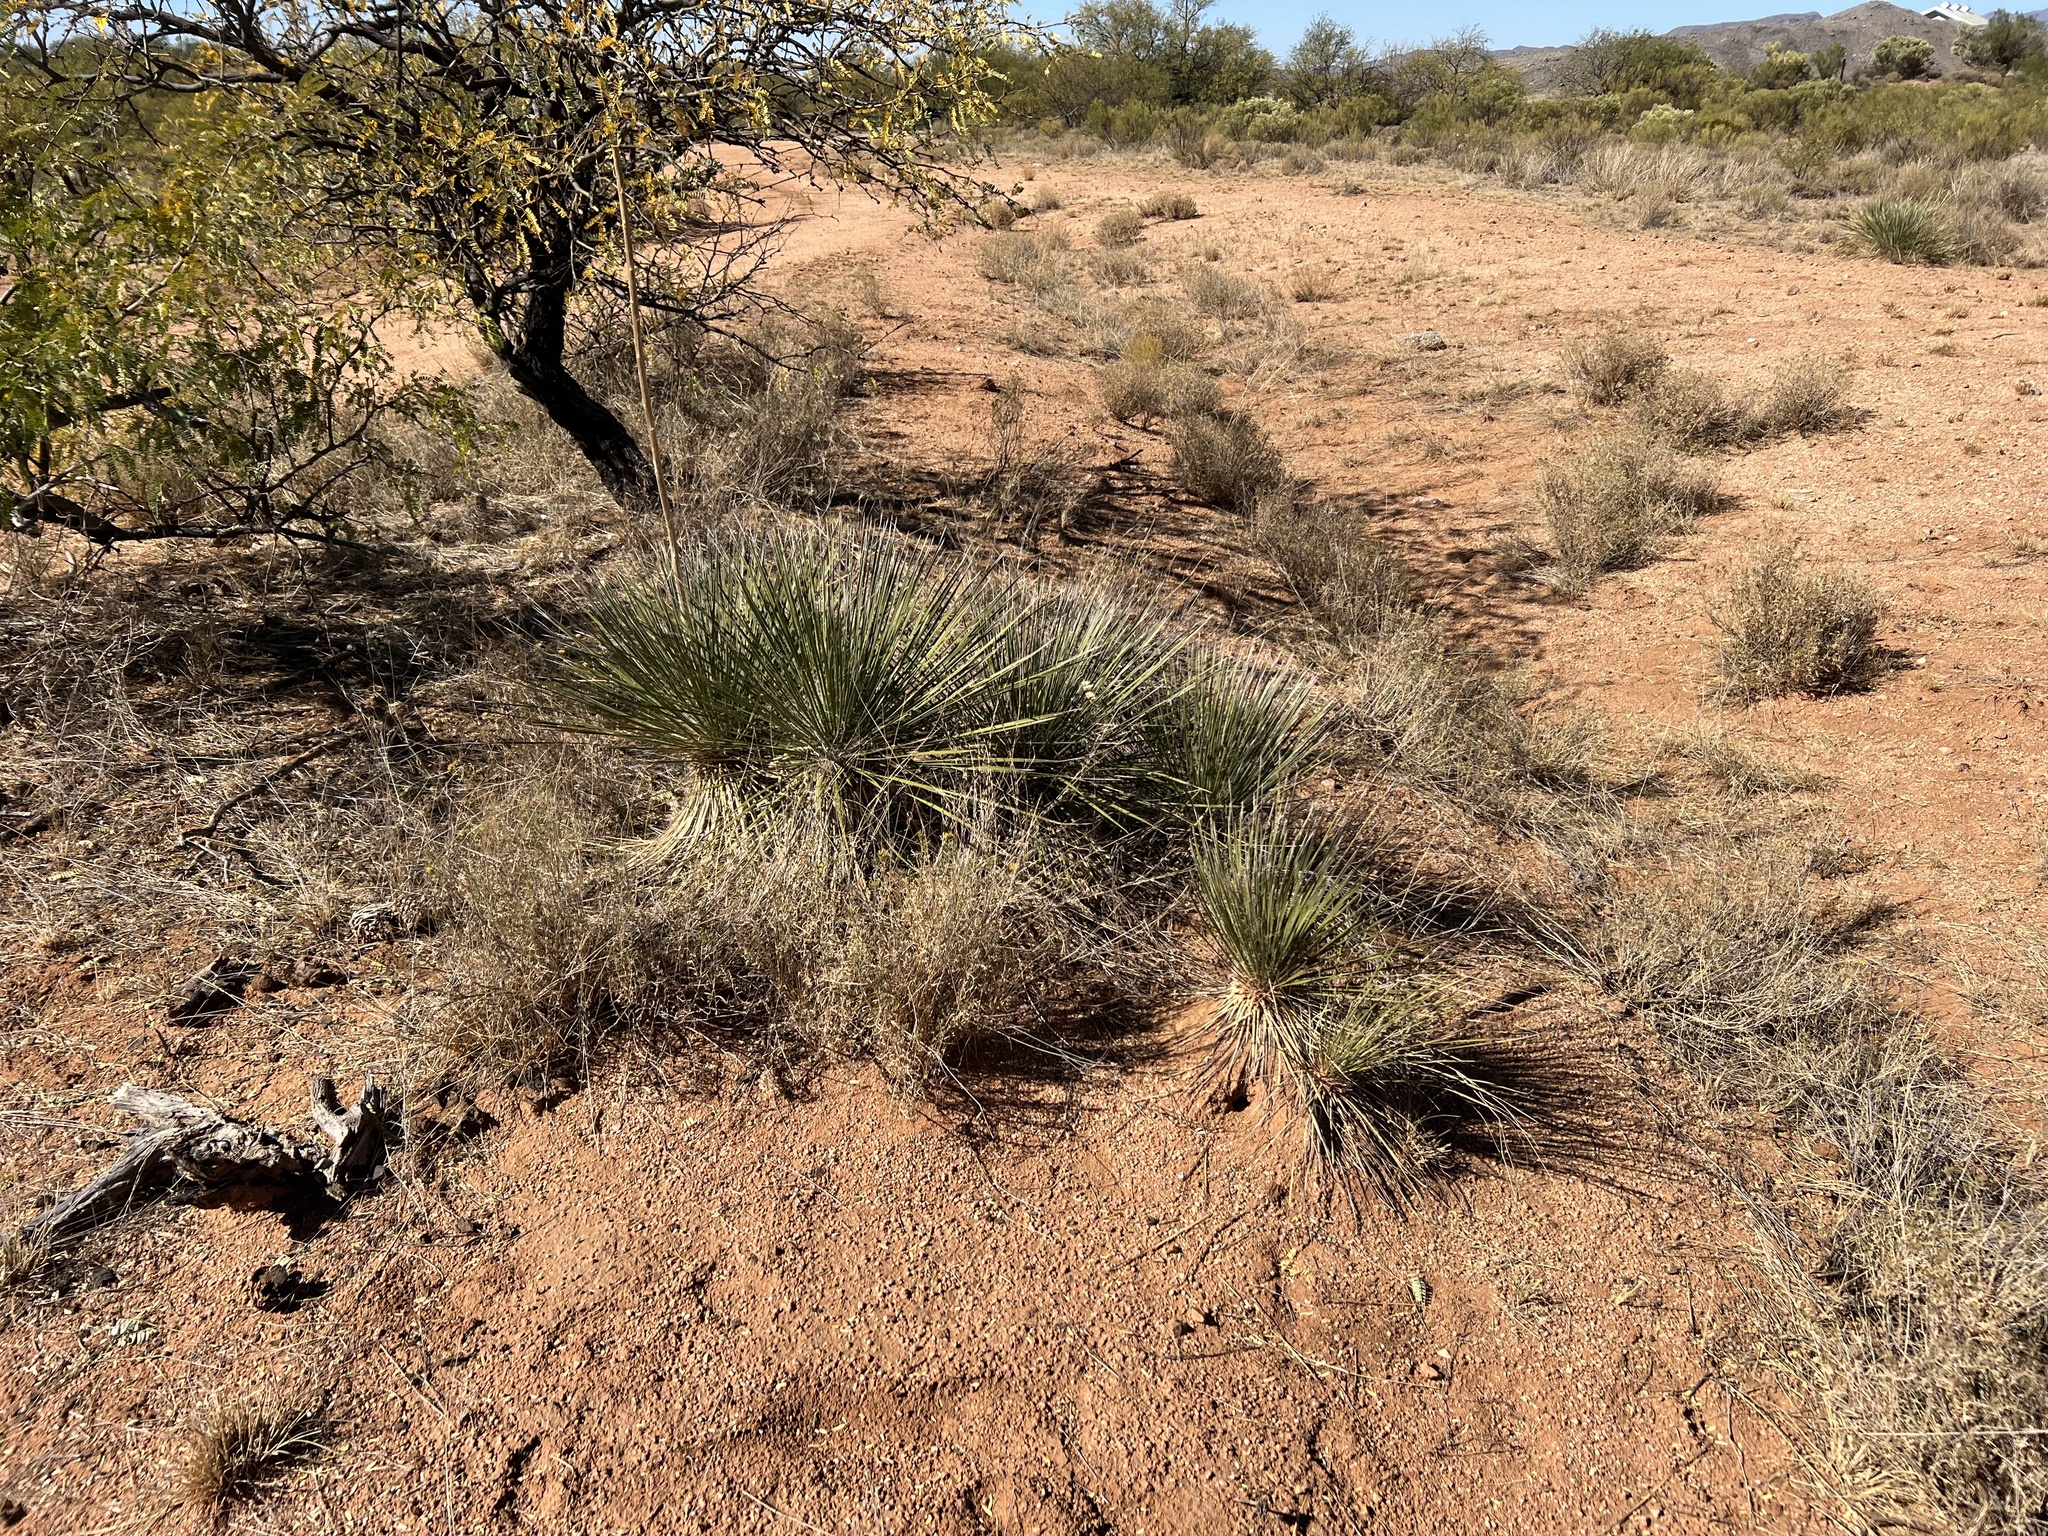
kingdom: Plantae
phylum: Tracheophyta
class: Liliopsida
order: Asparagales
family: Asparagaceae
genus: Yucca
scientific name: Yucca elata
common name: Palmella
